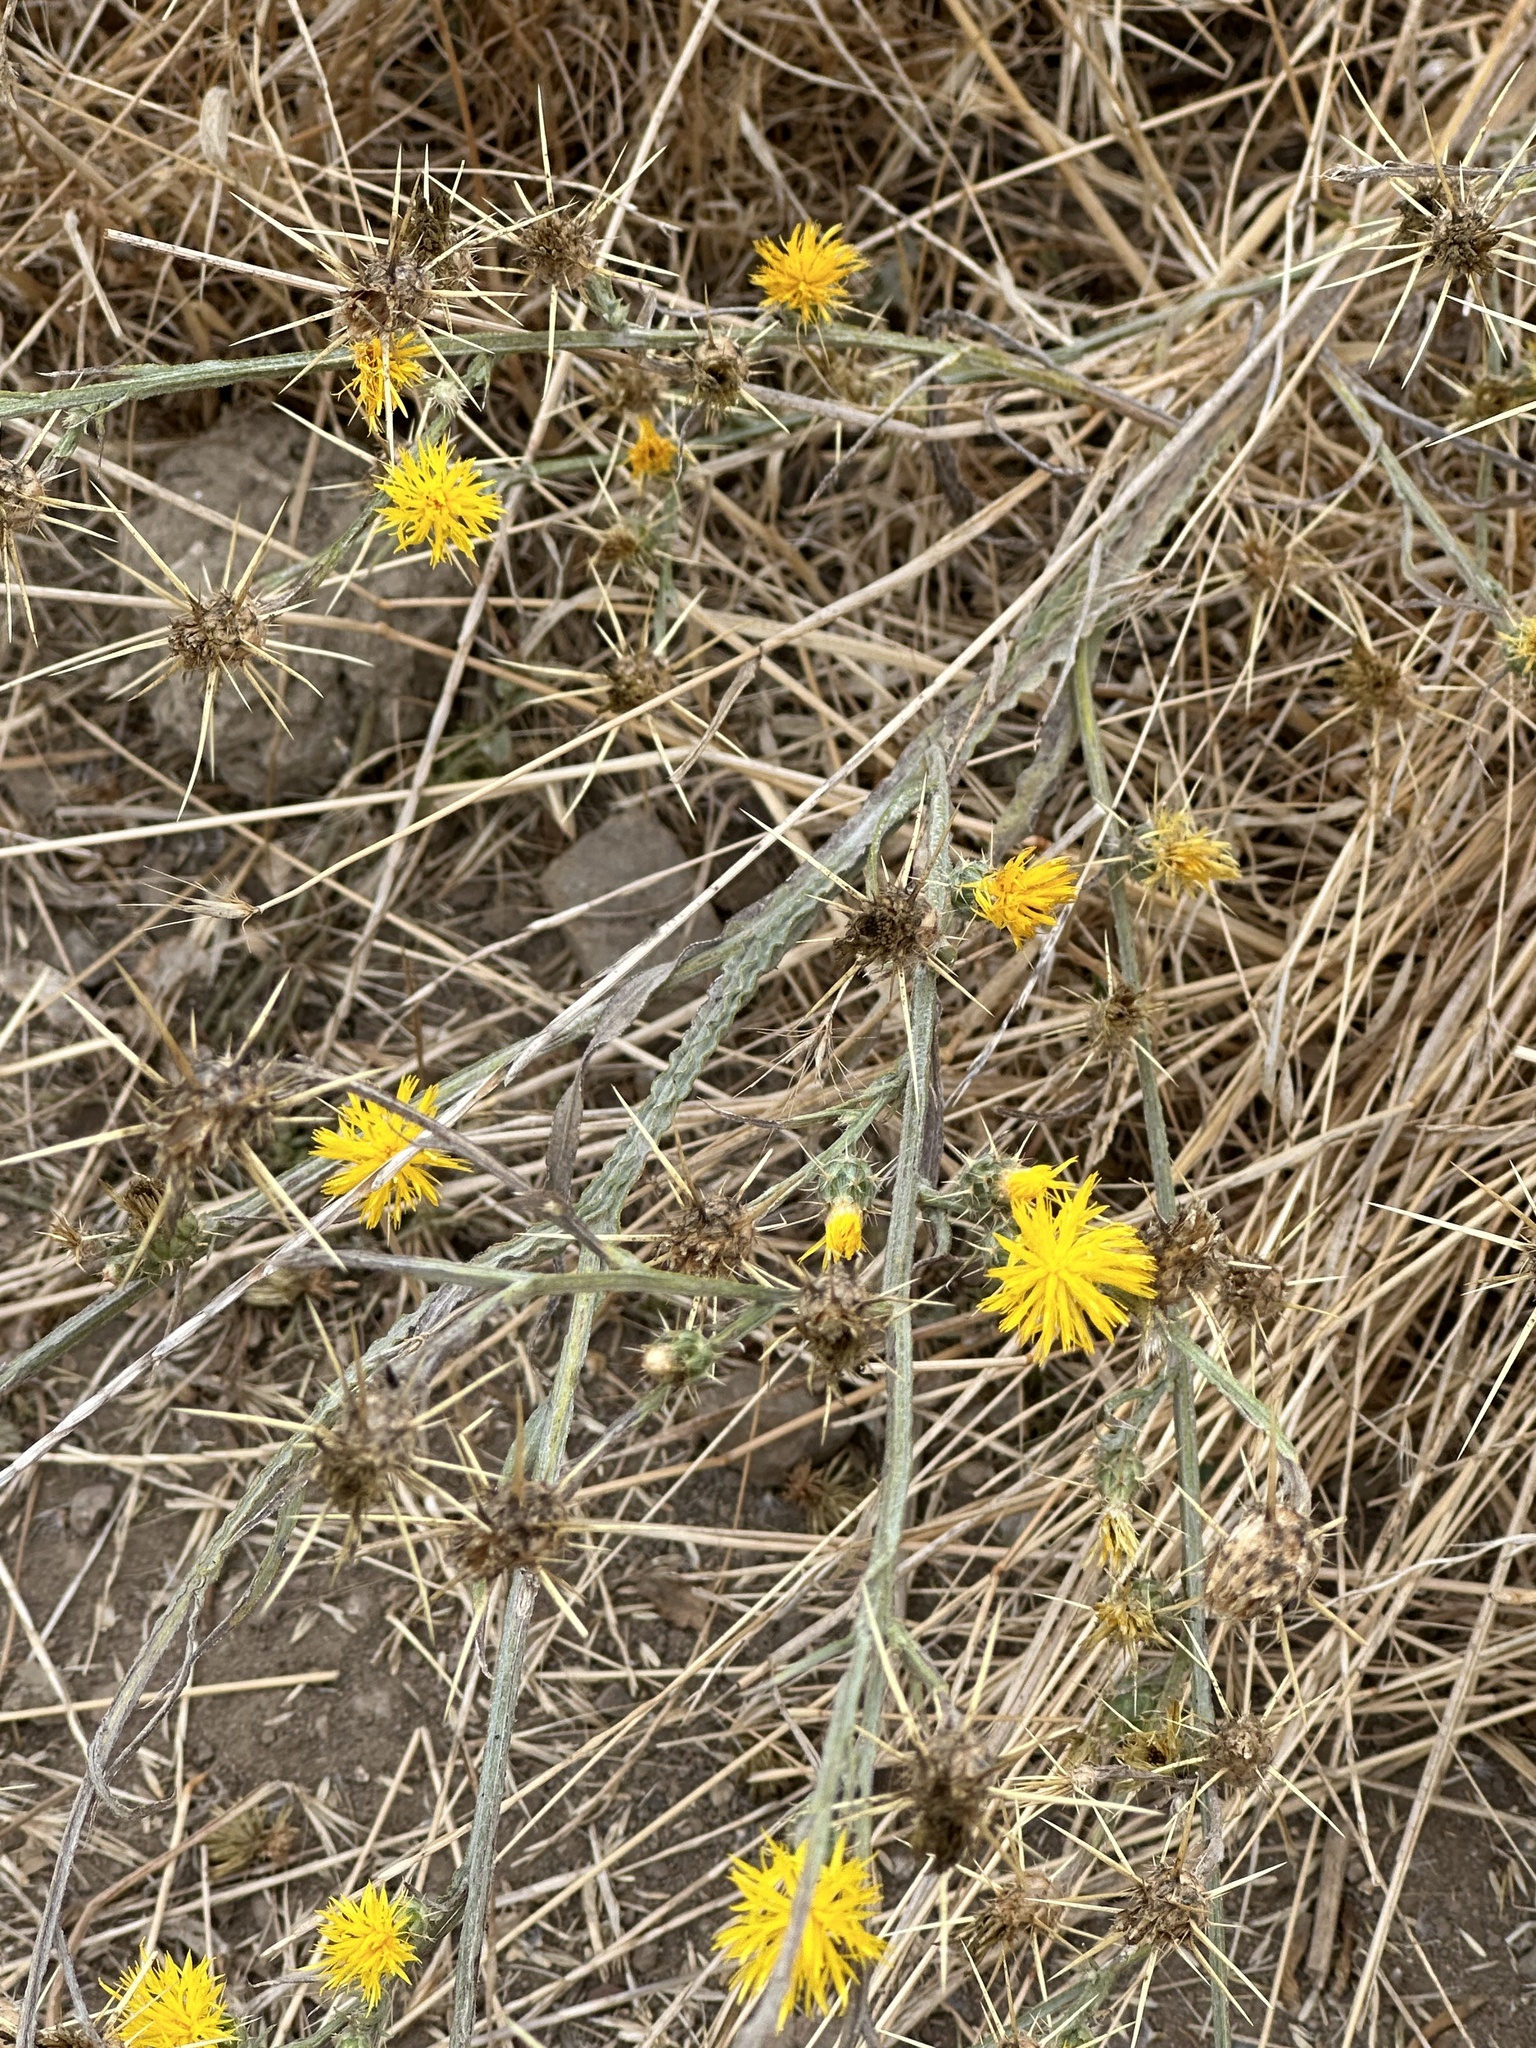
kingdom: Plantae
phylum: Tracheophyta
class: Magnoliopsida
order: Asterales
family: Asteraceae
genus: Centaurea
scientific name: Centaurea solstitialis
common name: Yellow star-thistle
